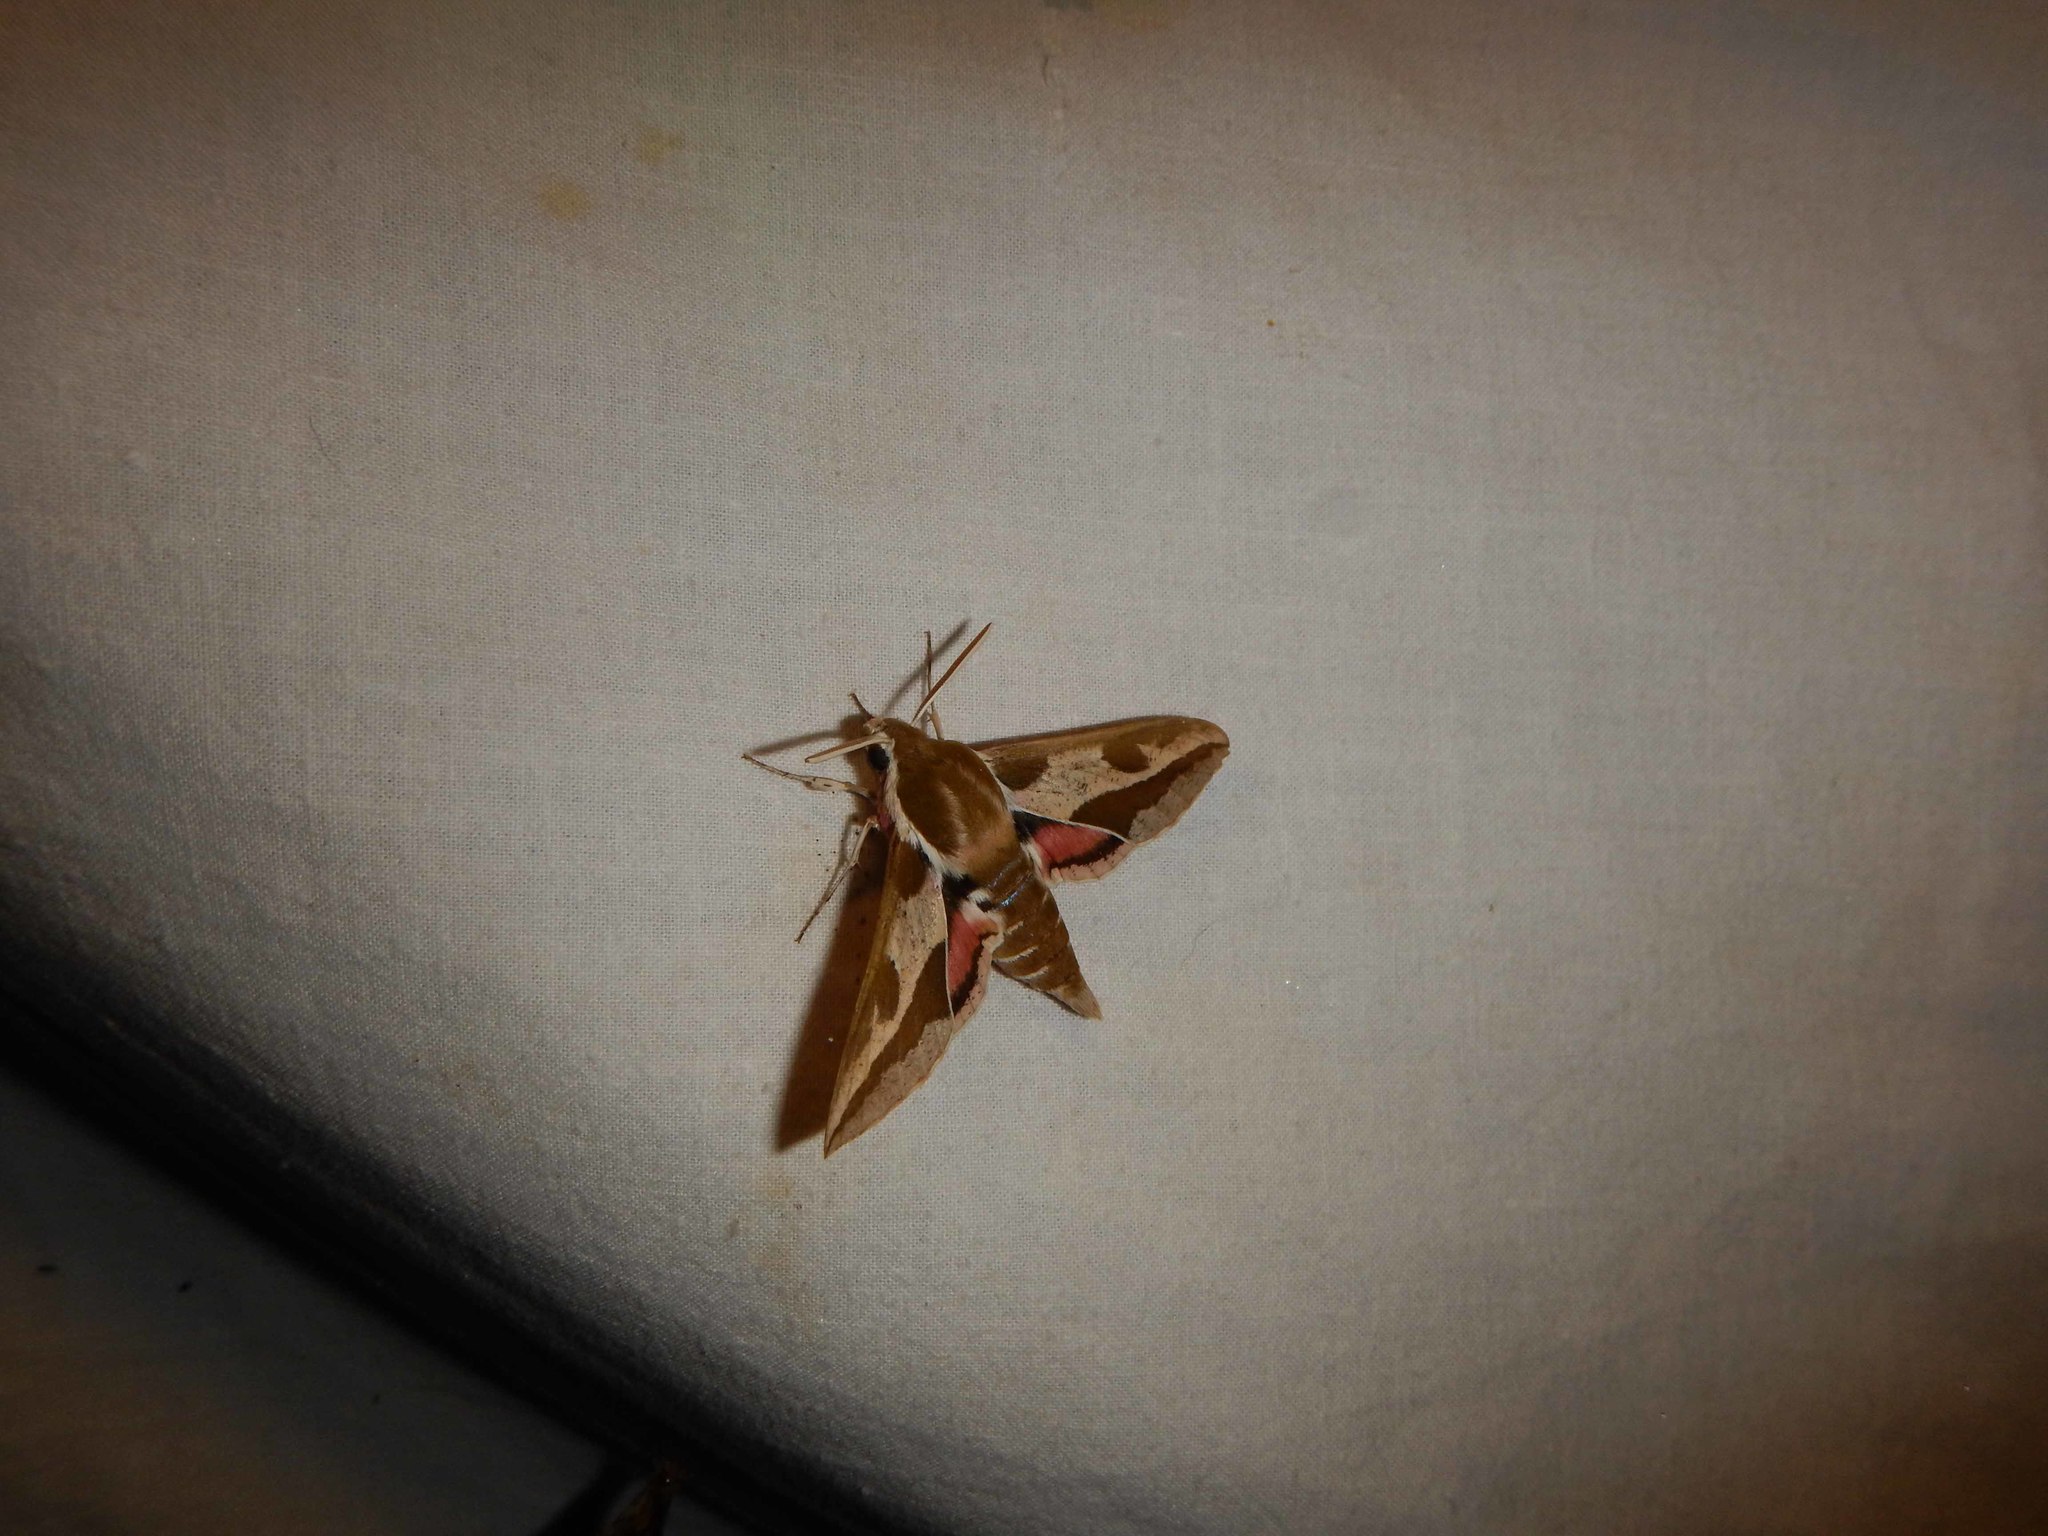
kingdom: Animalia
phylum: Arthropoda
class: Insecta
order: Lepidoptera
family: Sphingidae
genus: Hyles
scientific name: Hyles euphorbiae
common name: Spurge hawk-moth
